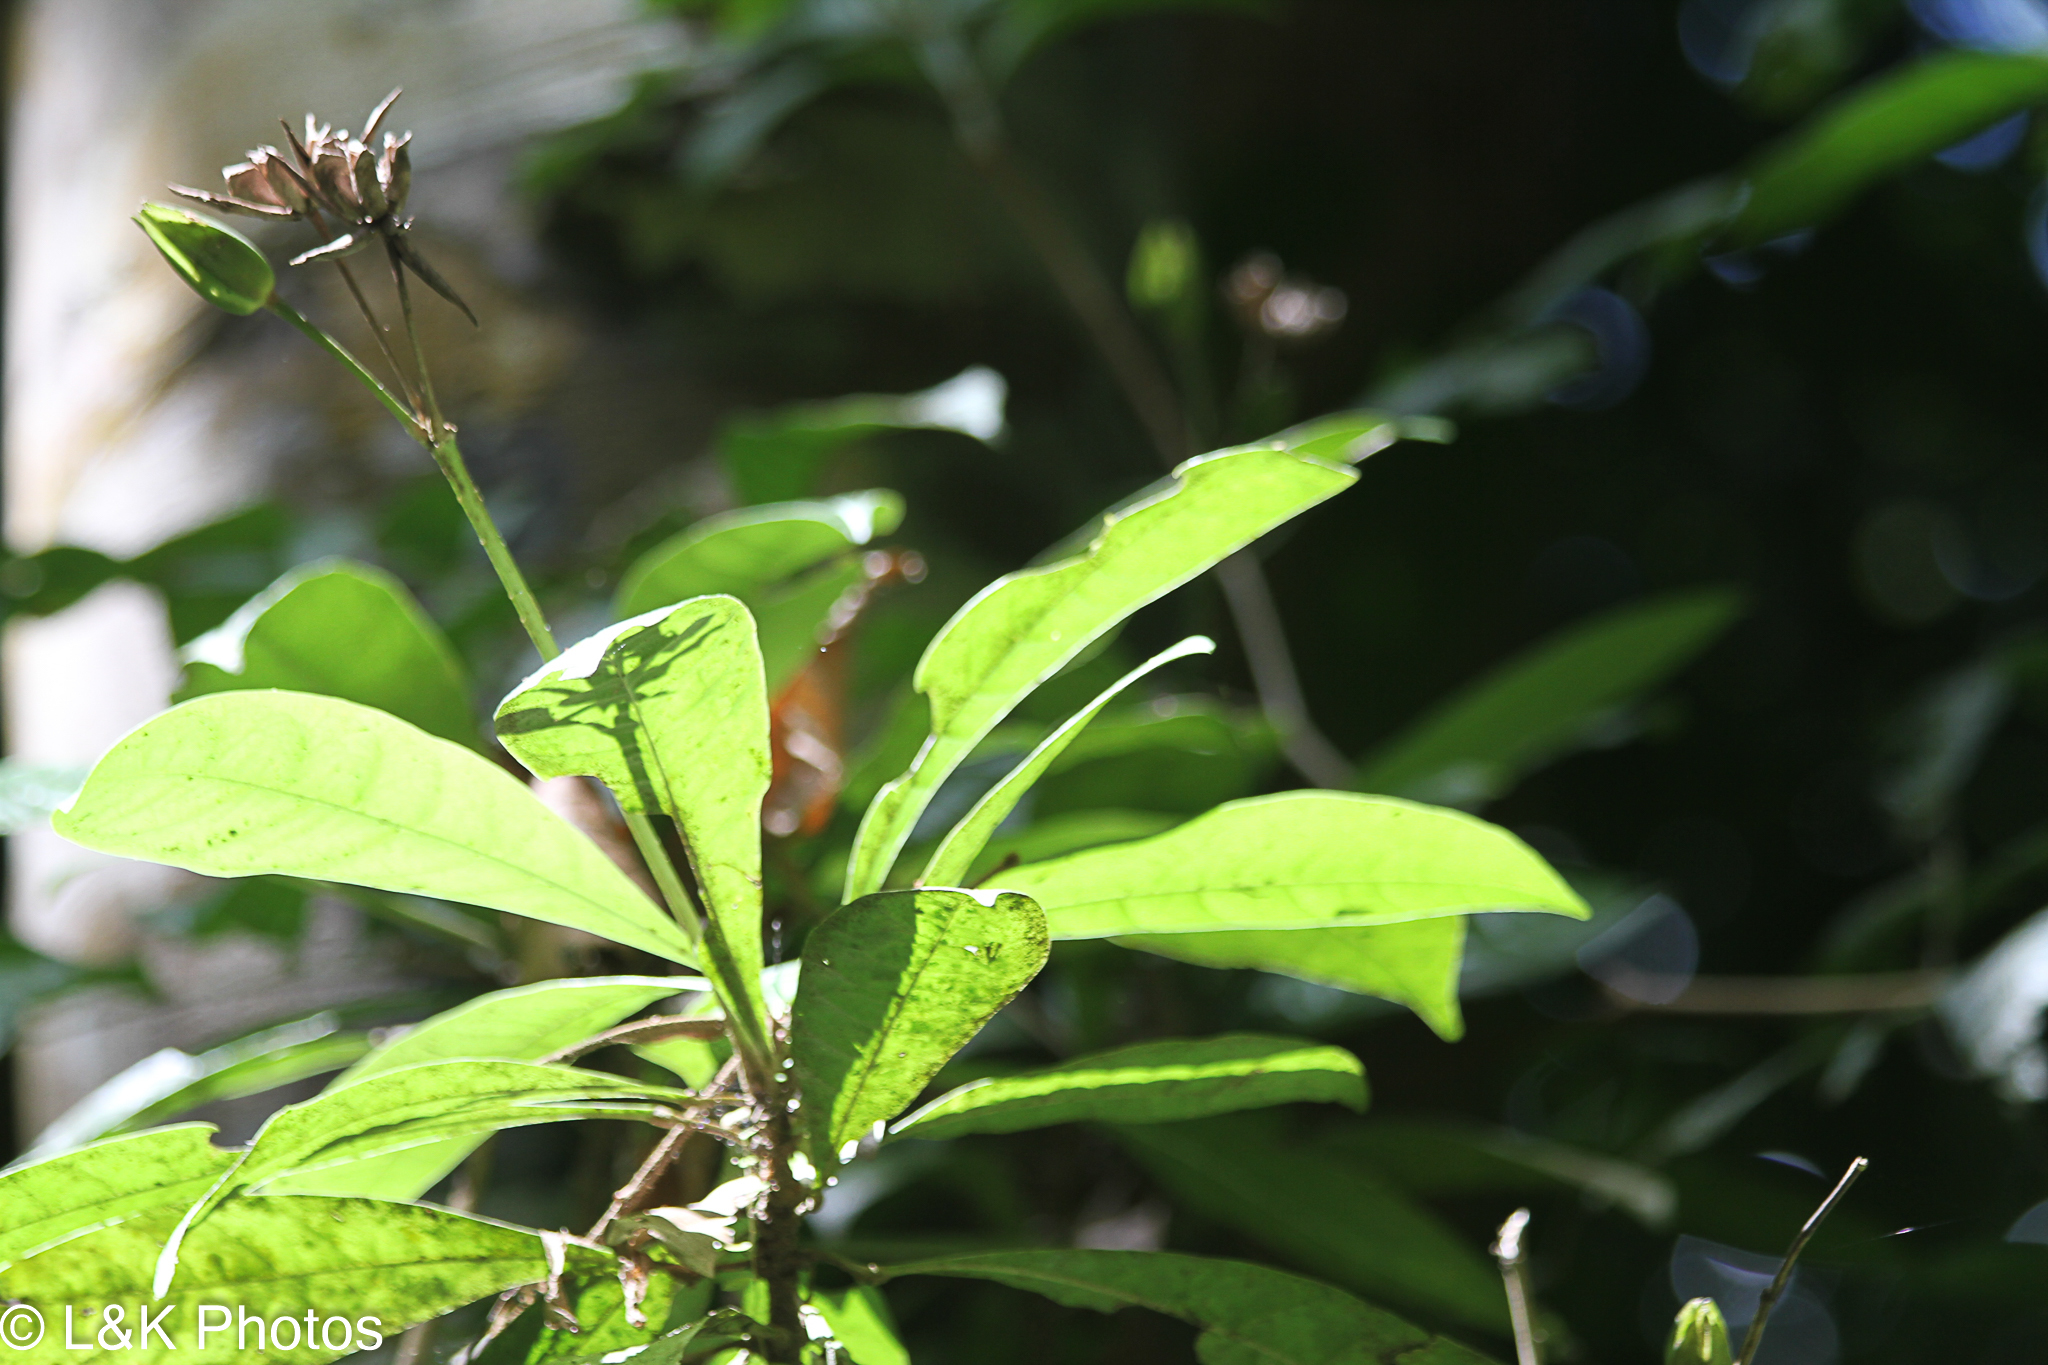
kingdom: Plantae
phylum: Tracheophyta
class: Magnoliopsida
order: Sapindales
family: Rutaceae
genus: Erythrochiton
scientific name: Erythrochiton gymnanthus
